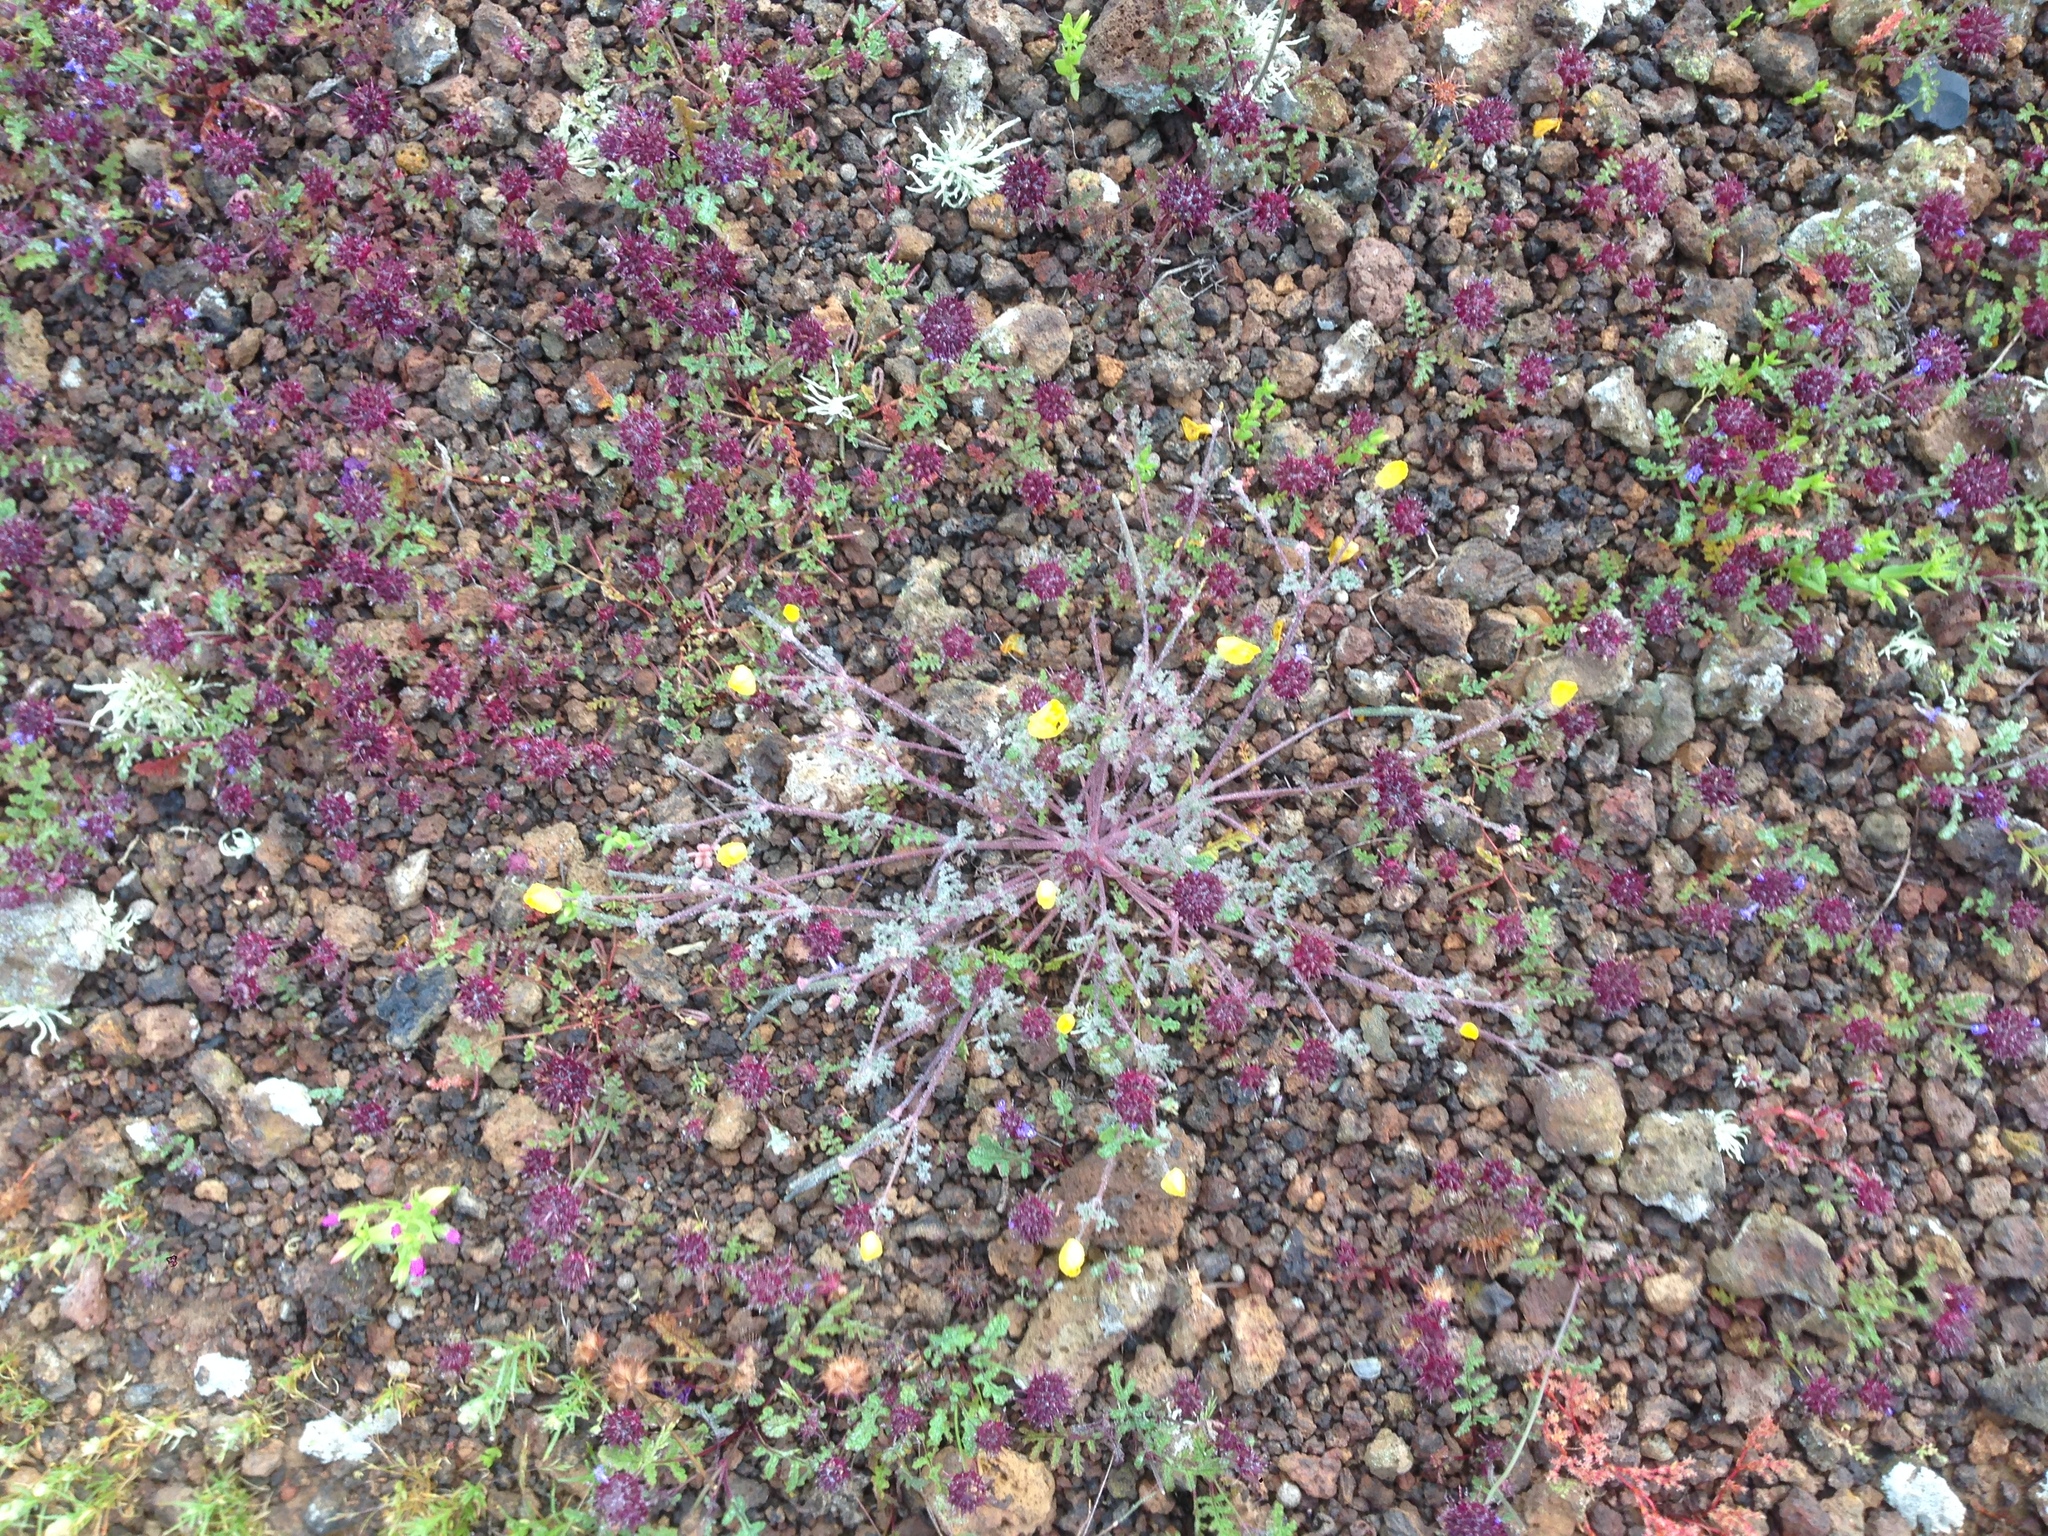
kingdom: Plantae
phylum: Tracheophyta
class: Magnoliopsida
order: Lamiales
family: Lamiaceae
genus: Salvia
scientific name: Salvia columbariae
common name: Chia
